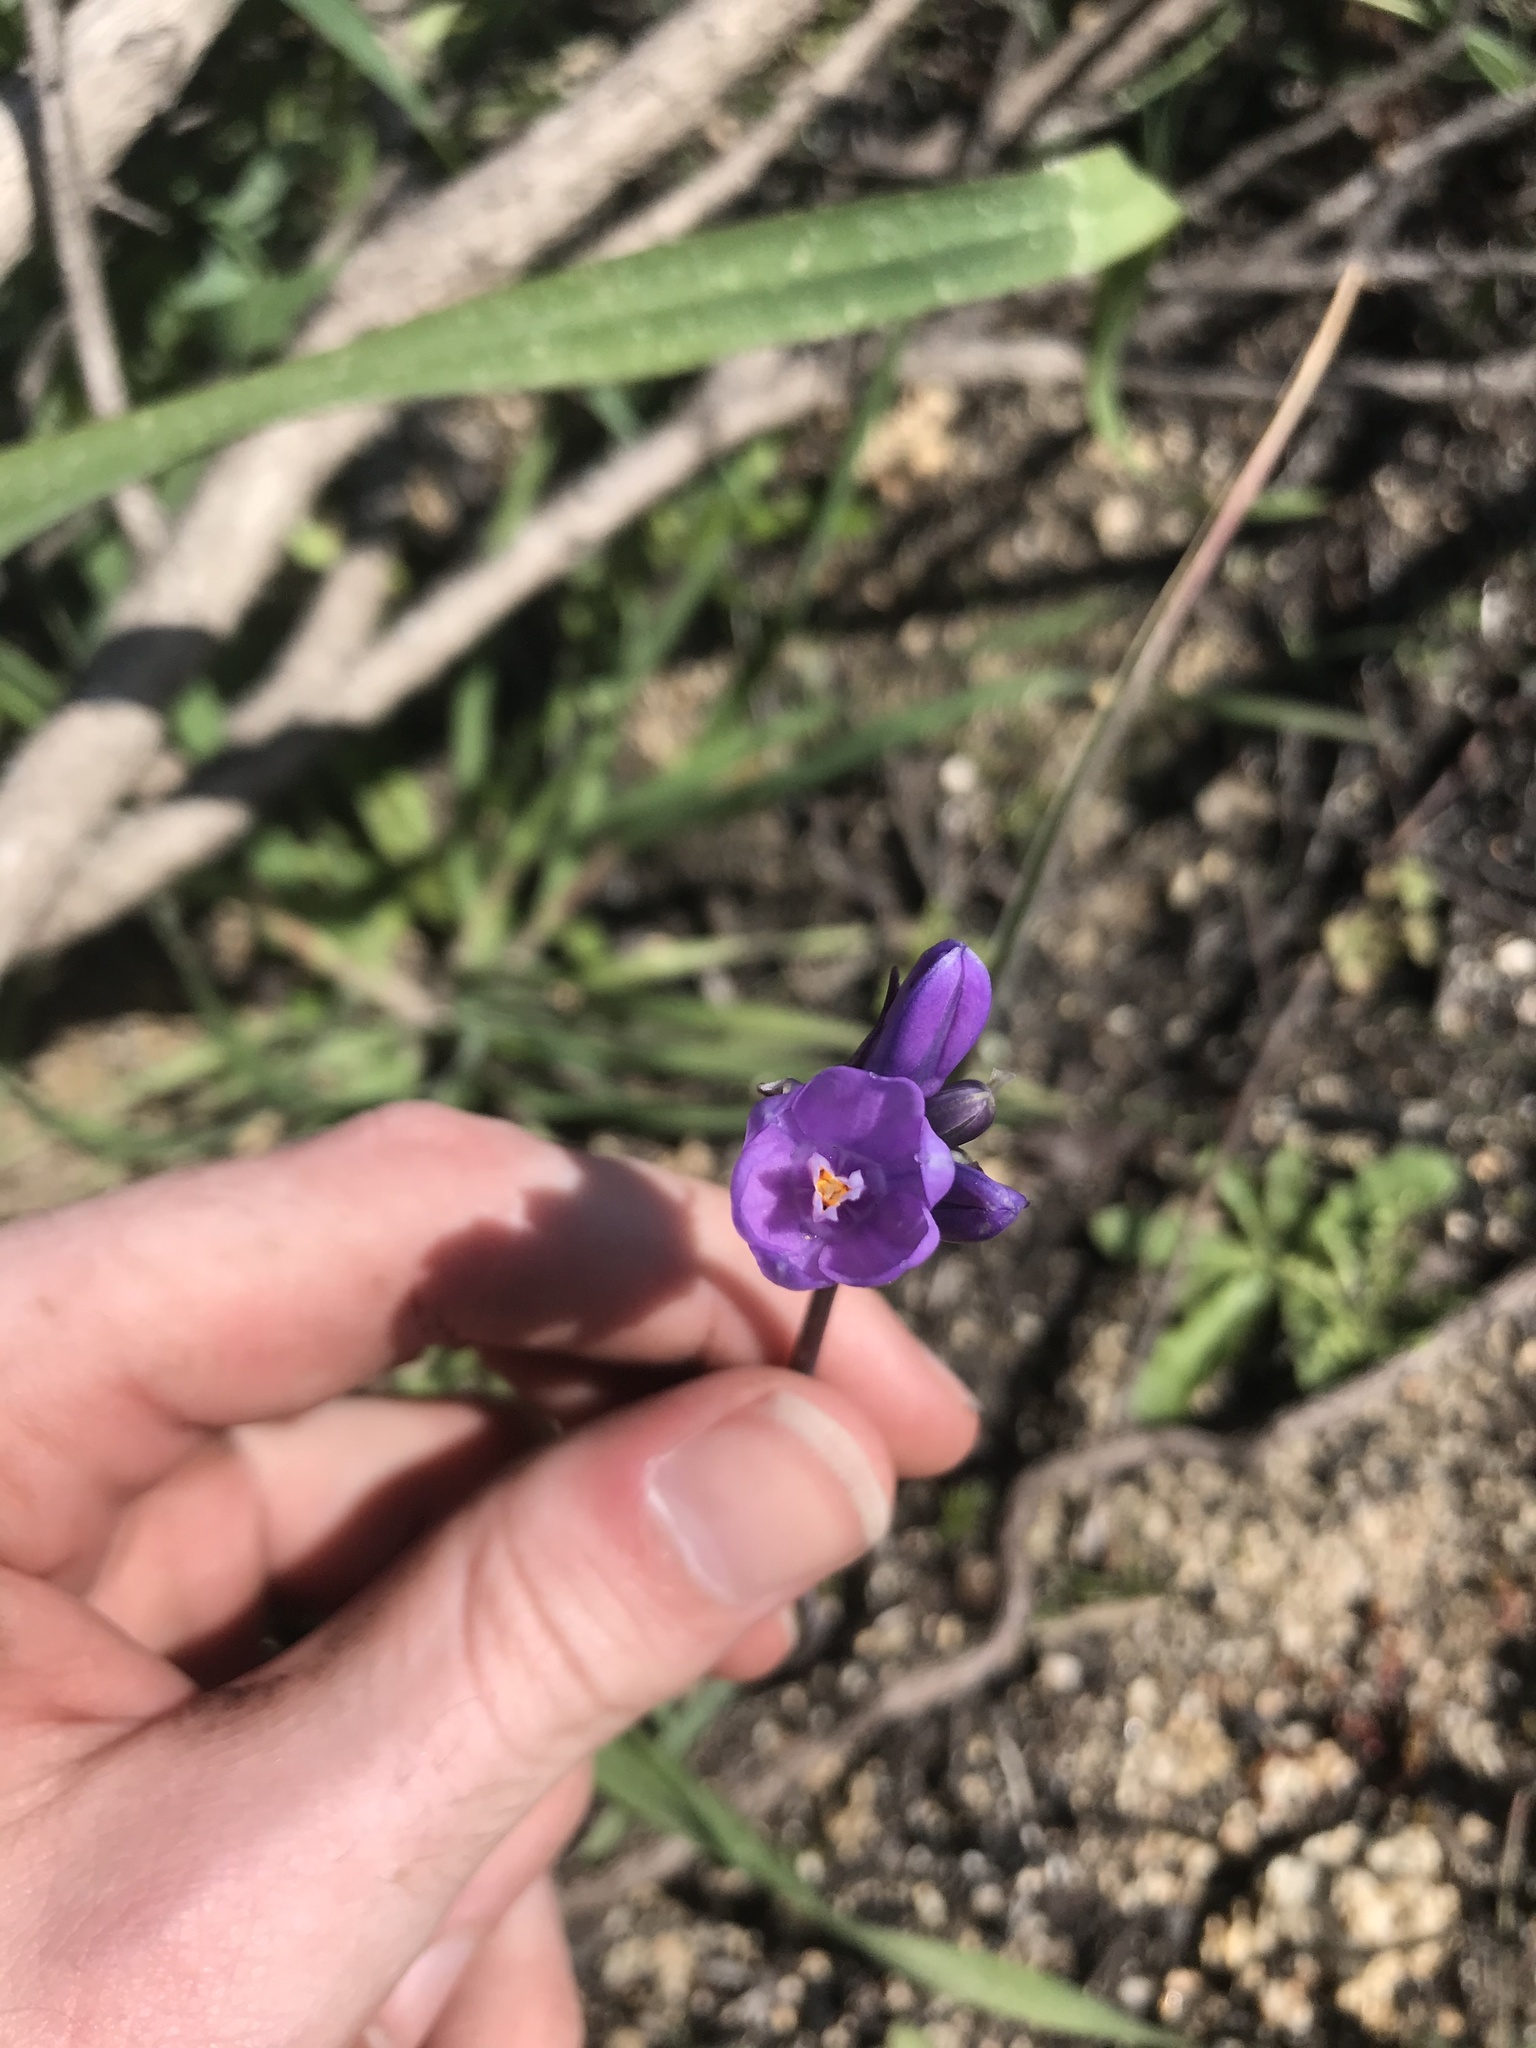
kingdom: Plantae
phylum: Tracheophyta
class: Liliopsida
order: Asparagales
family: Asparagaceae
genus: Dipterostemon
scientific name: Dipterostemon capitatus
